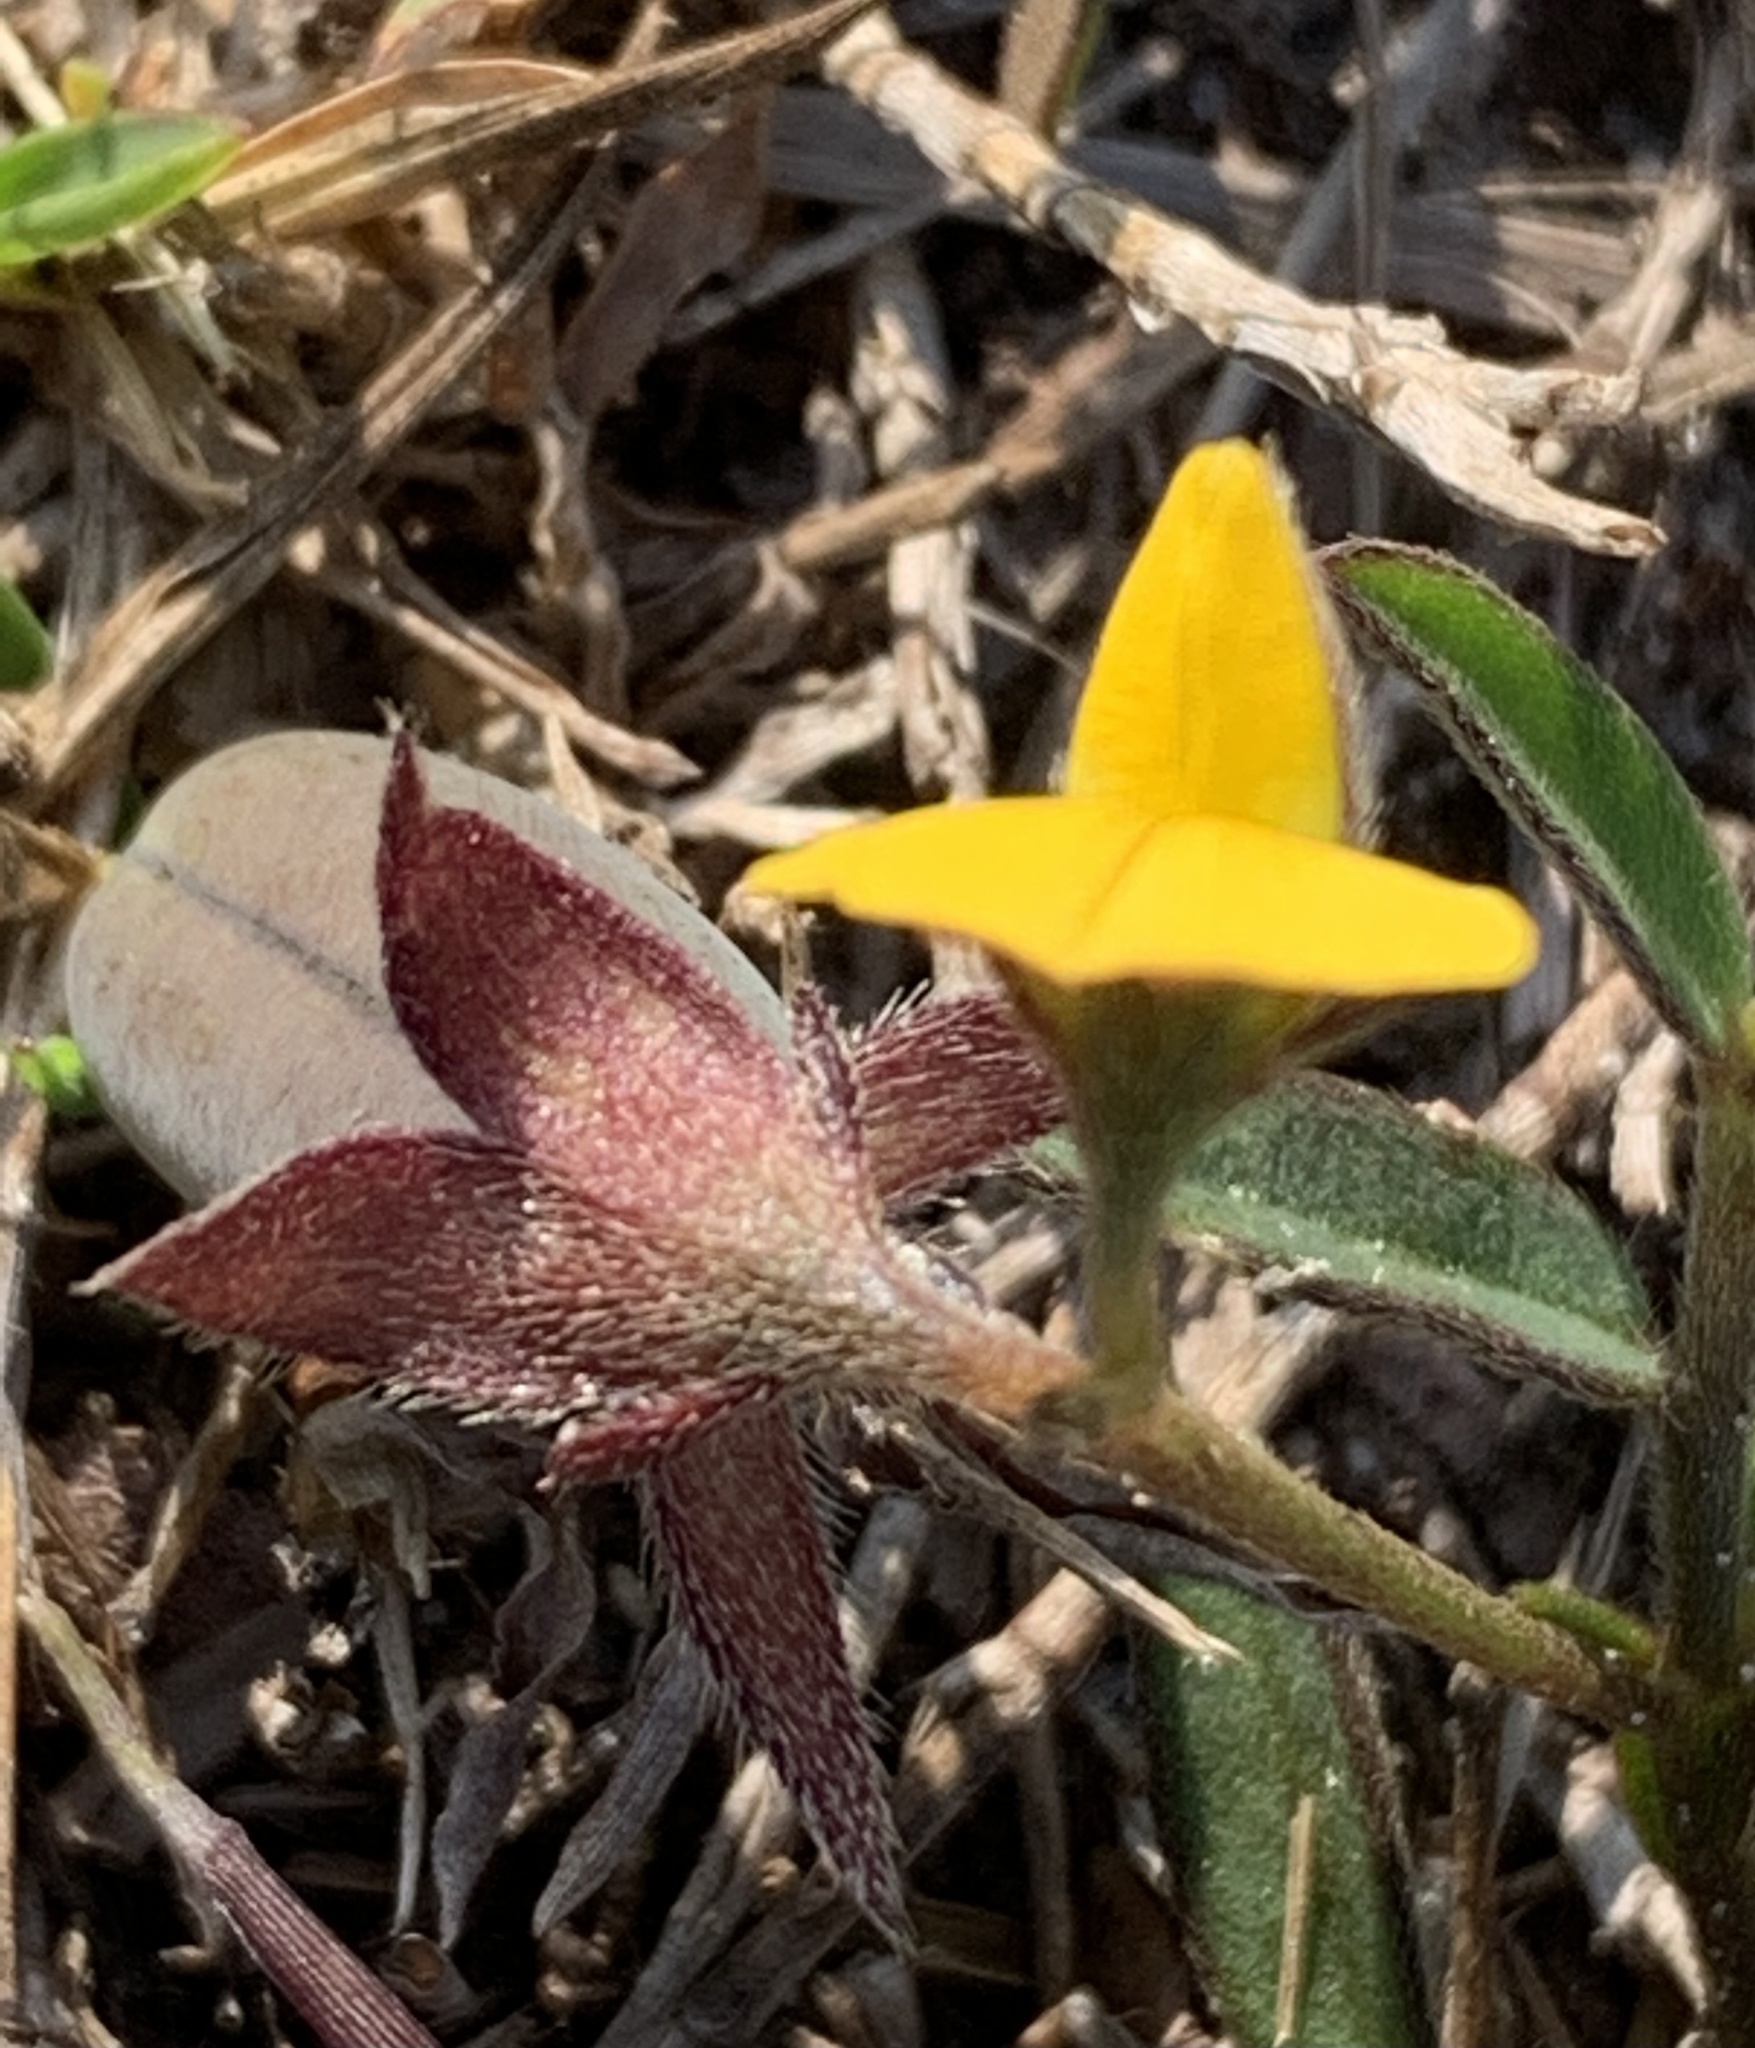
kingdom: Plantae
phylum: Tracheophyta
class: Magnoliopsida
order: Fabales
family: Fabaceae
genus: Crotalaria
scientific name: Crotalaria rotundifolia
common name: Prostrate rattlebox
